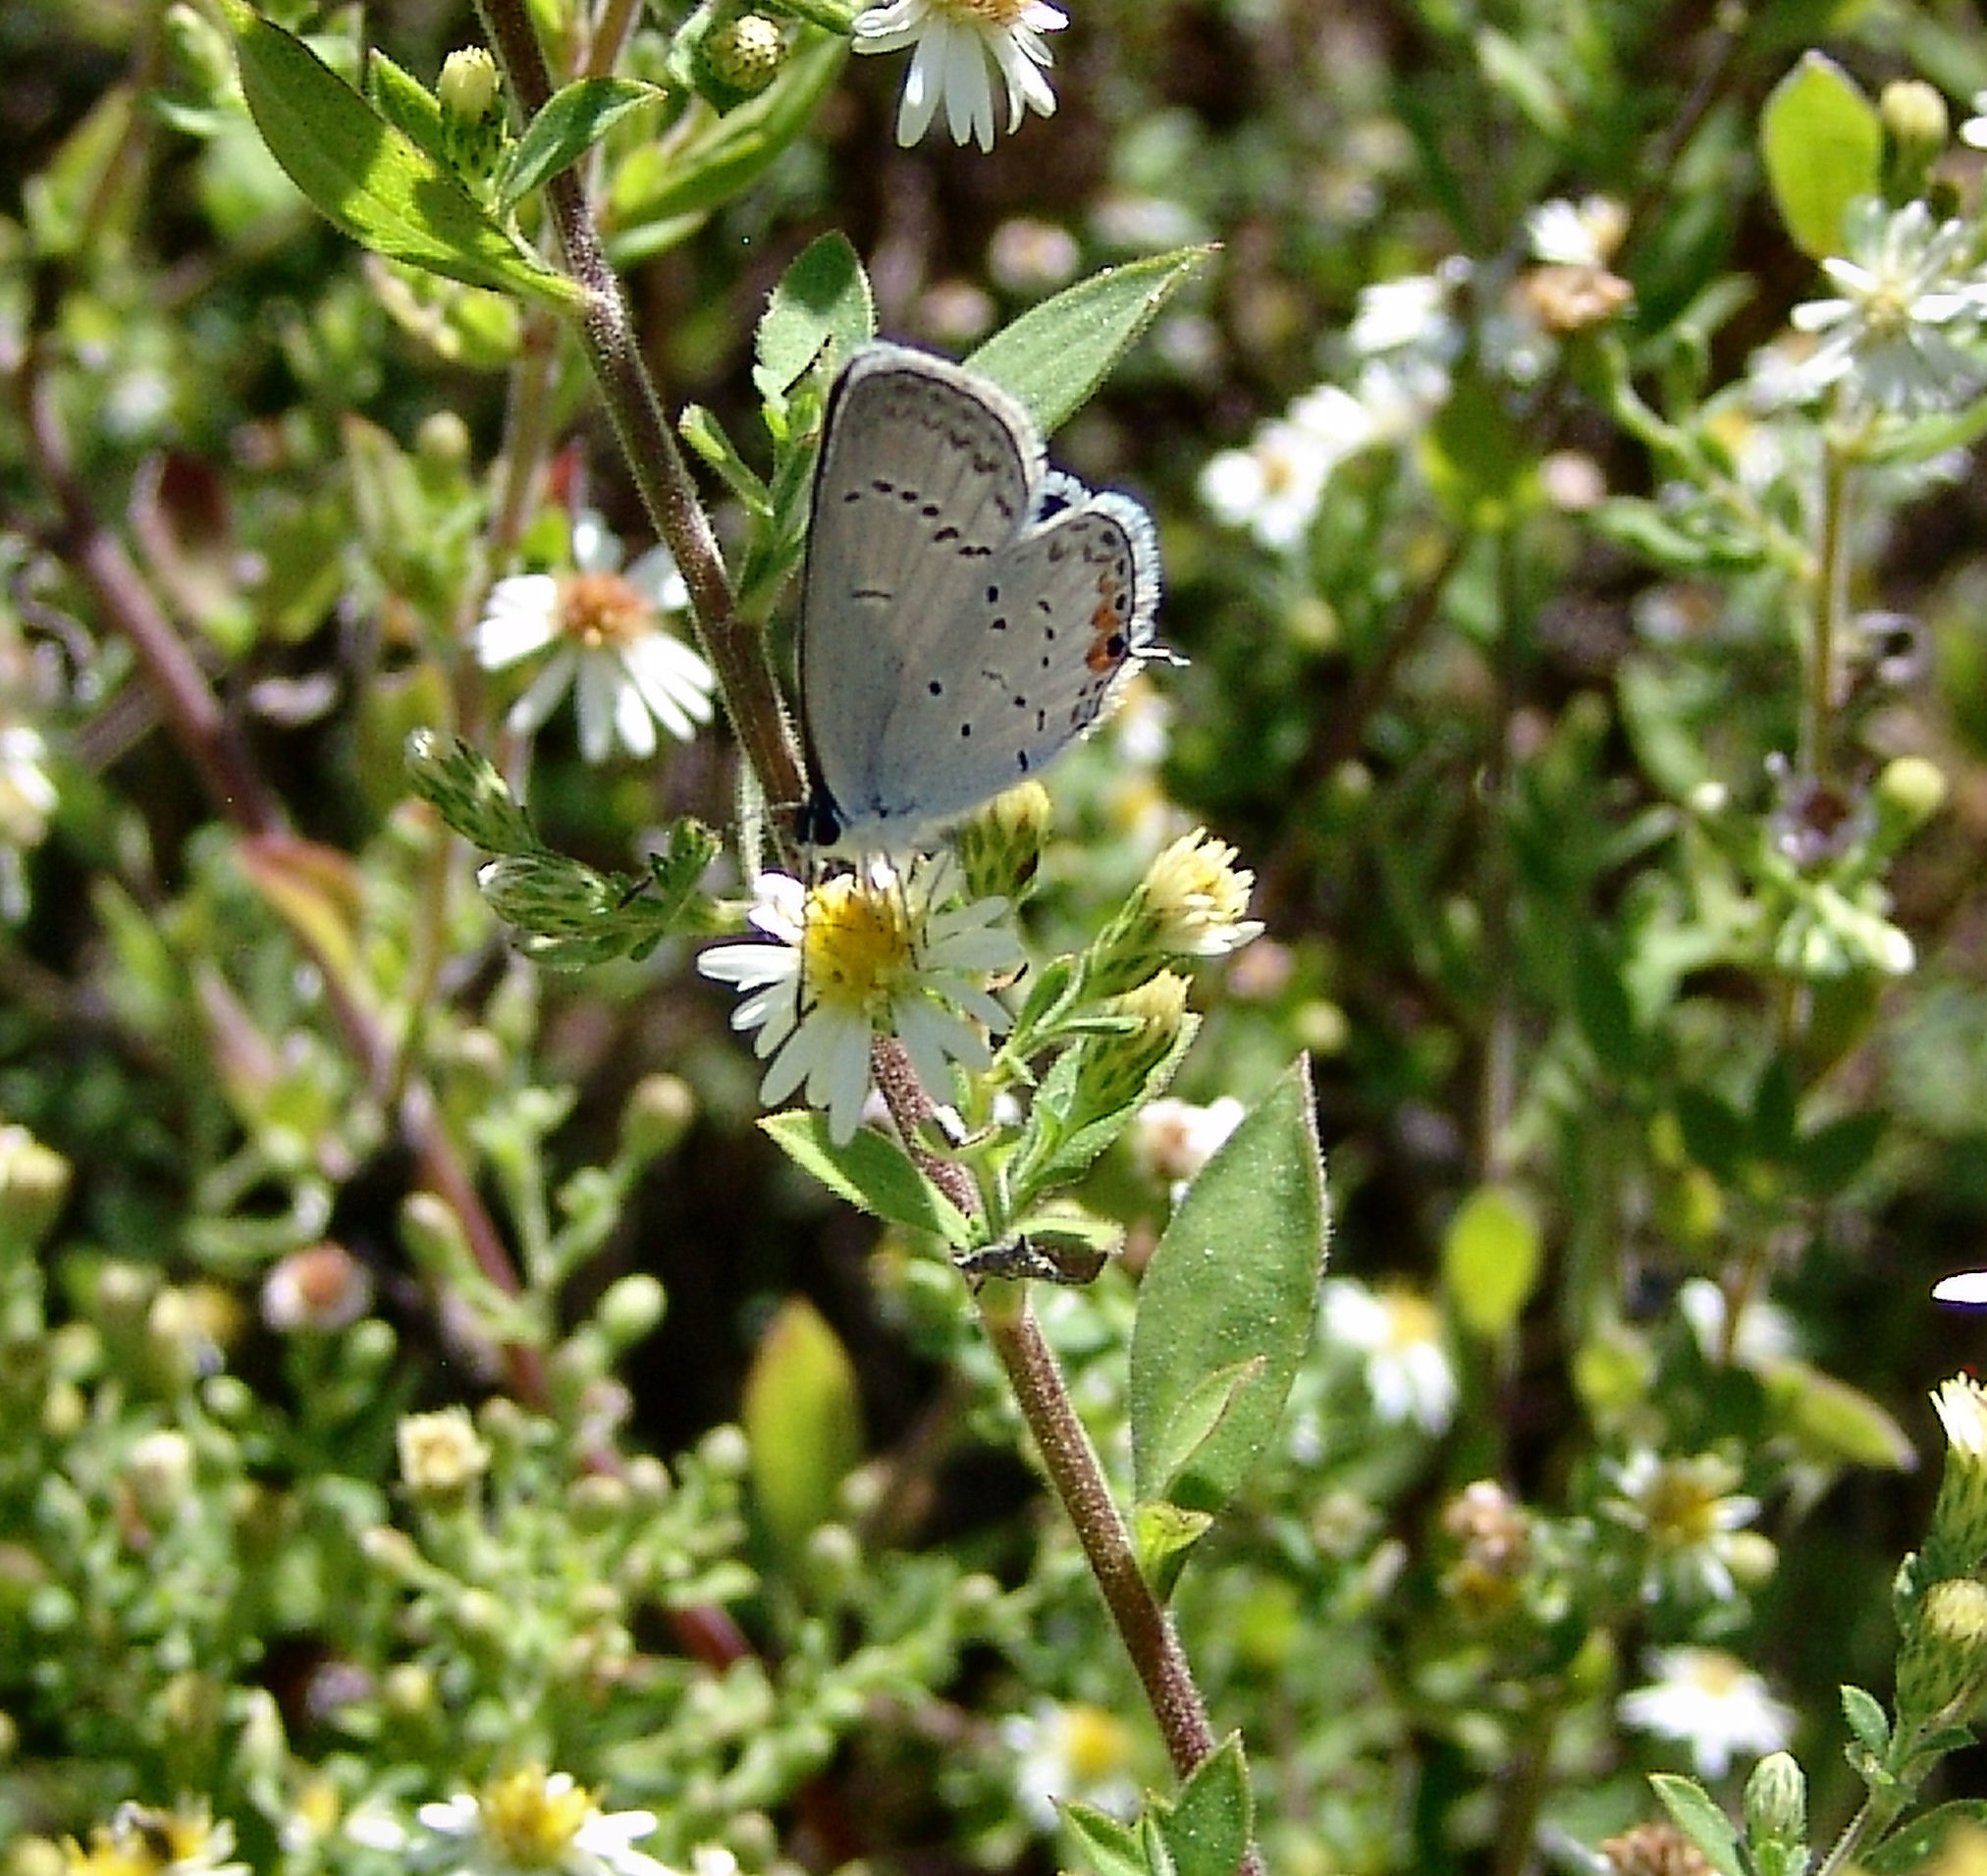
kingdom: Animalia
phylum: Arthropoda
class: Insecta
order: Lepidoptera
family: Lycaenidae
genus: Elkalyce
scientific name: Elkalyce comyntas
